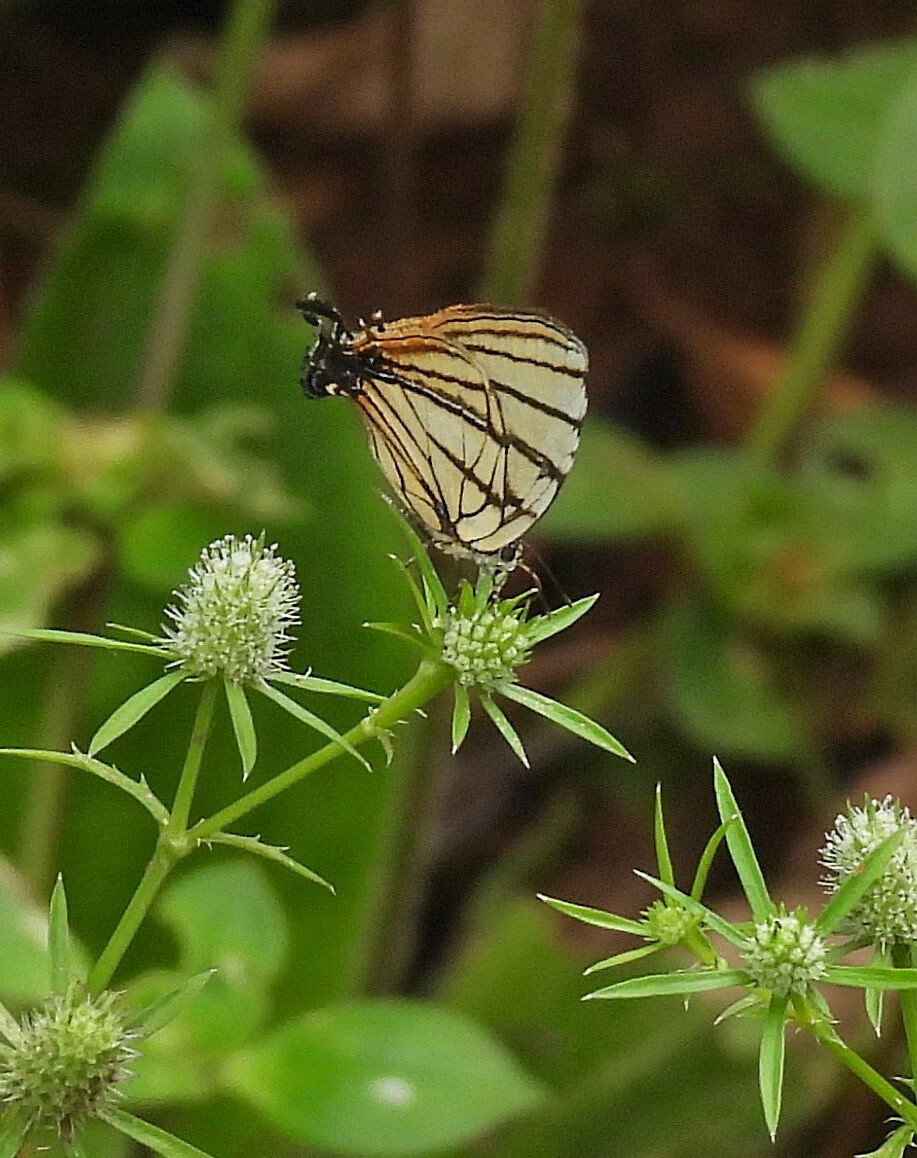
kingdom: Animalia
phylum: Arthropoda
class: Insecta
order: Lepidoptera
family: Lycaenidae
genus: Arawacus
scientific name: Arawacus melibaeus
